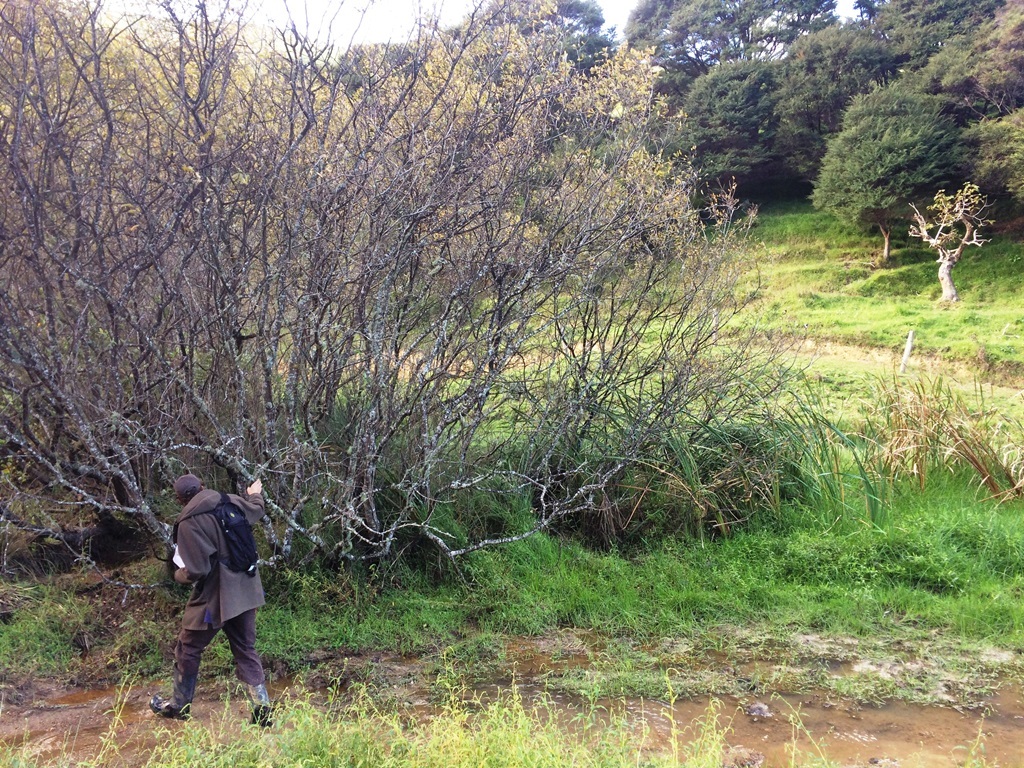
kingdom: Plantae
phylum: Tracheophyta
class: Magnoliopsida
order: Malpighiales
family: Salicaceae
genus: Salix
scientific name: Salix cinerea
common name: Common sallow
